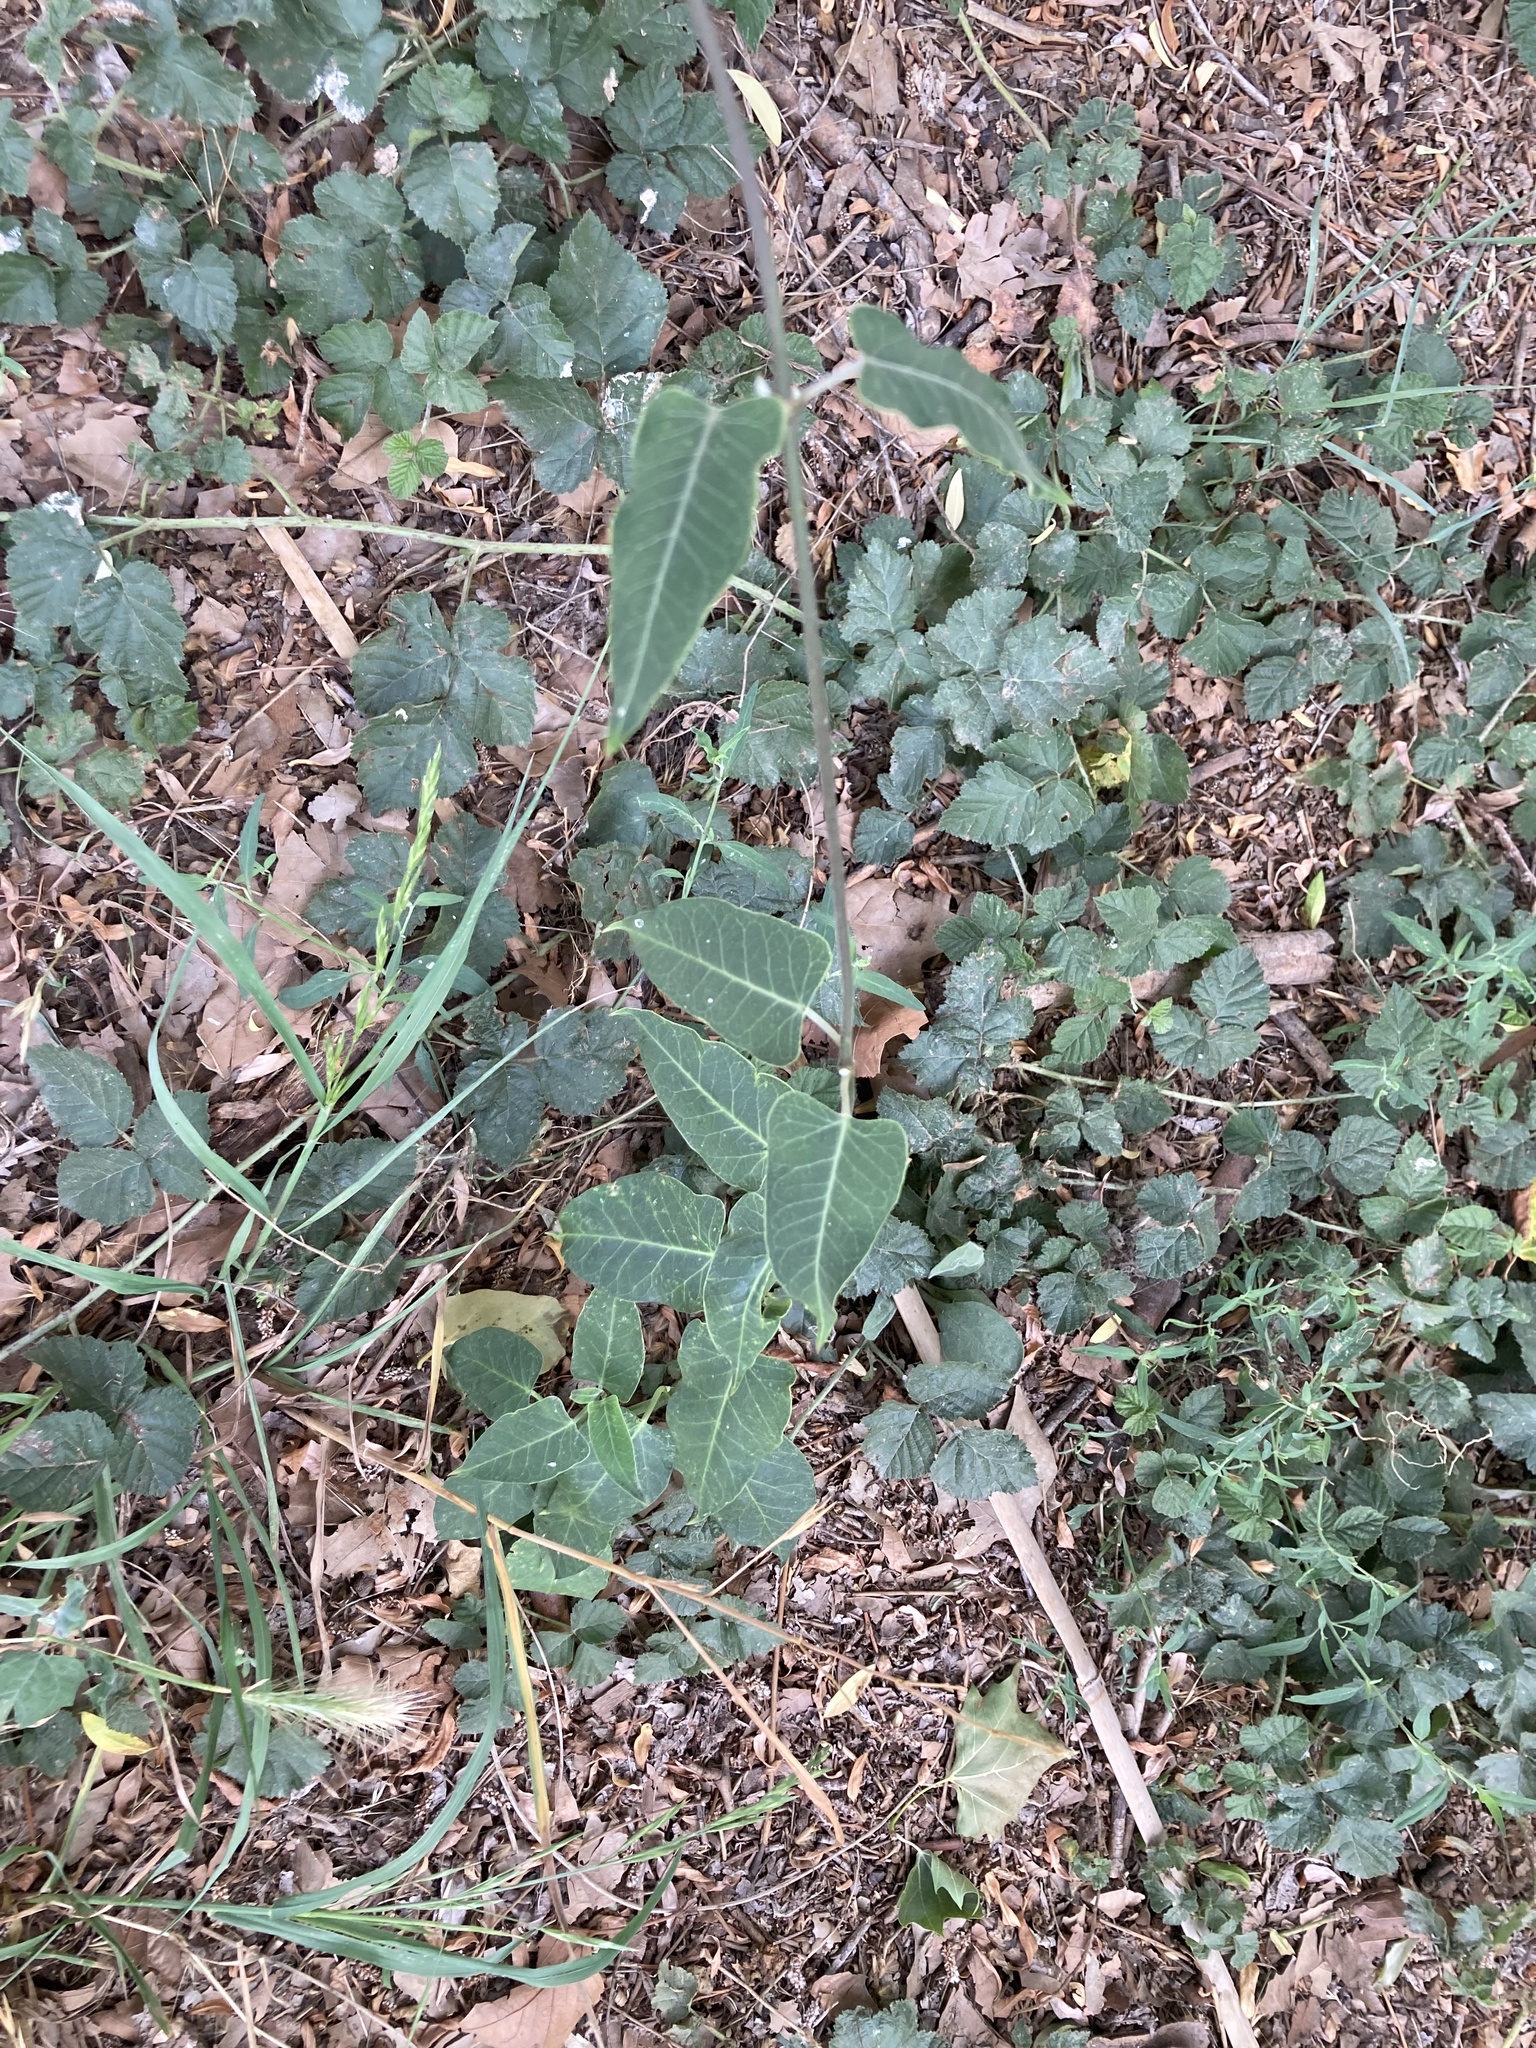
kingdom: Plantae
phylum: Tracheophyta
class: Magnoliopsida
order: Gentianales
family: Apocynaceae
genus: Araujia
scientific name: Araujia sericifera
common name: White bladderflower
